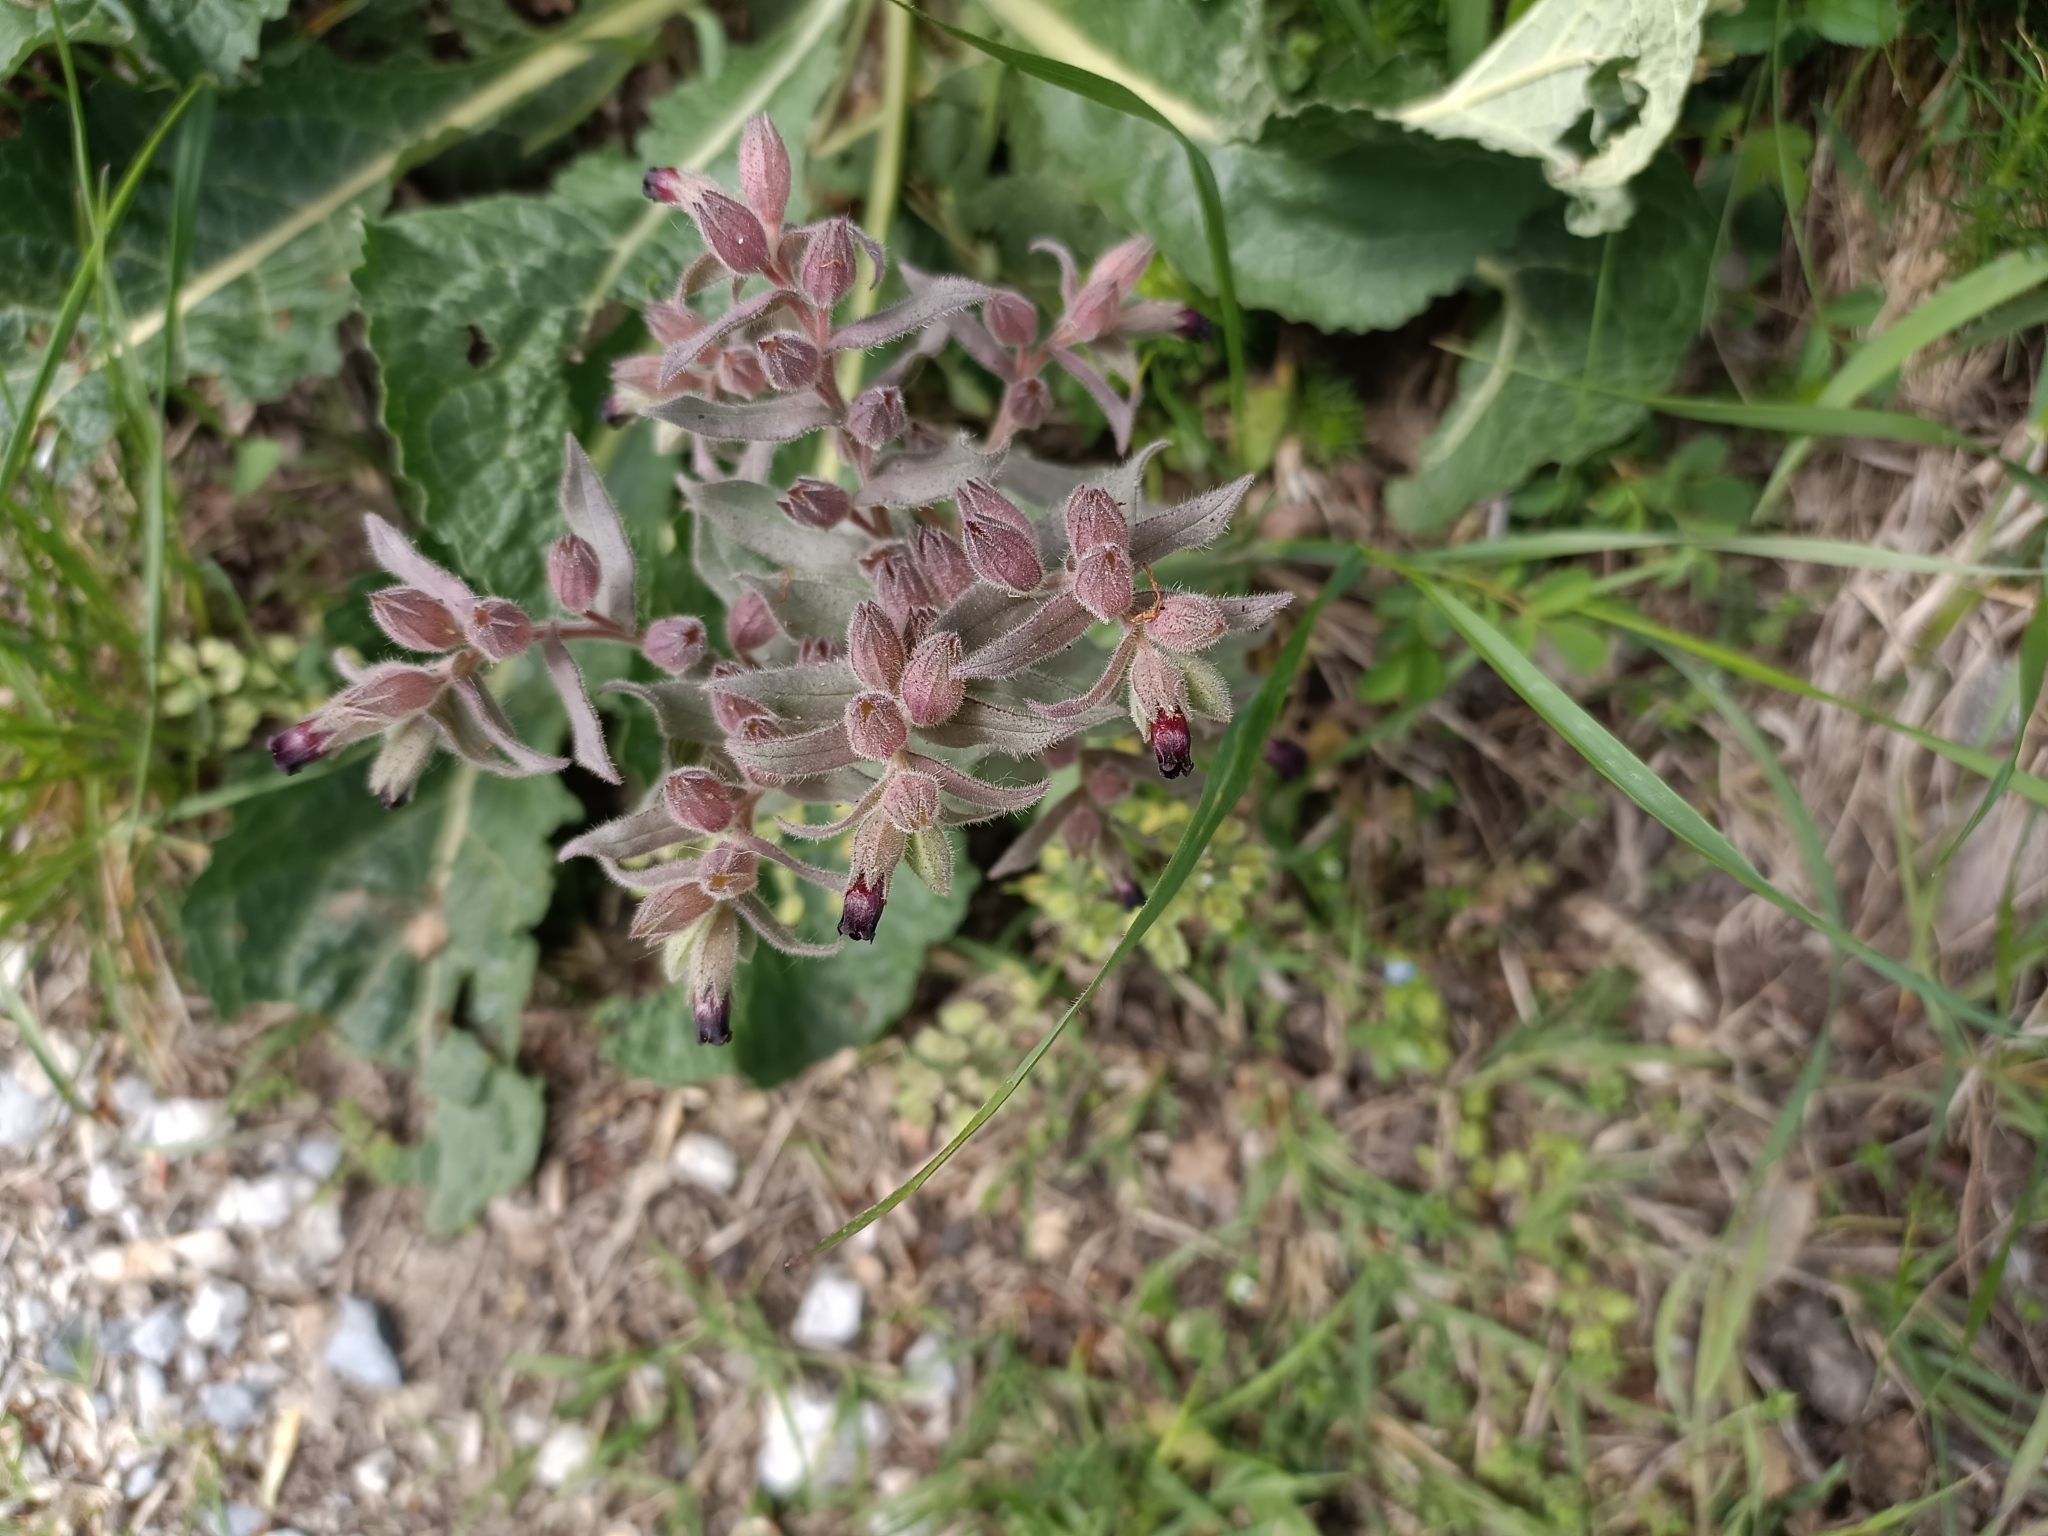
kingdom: Plantae
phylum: Tracheophyta
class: Magnoliopsida
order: Boraginales
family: Boraginaceae
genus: Nonea
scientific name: Nonea pulla
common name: Brown nonea
